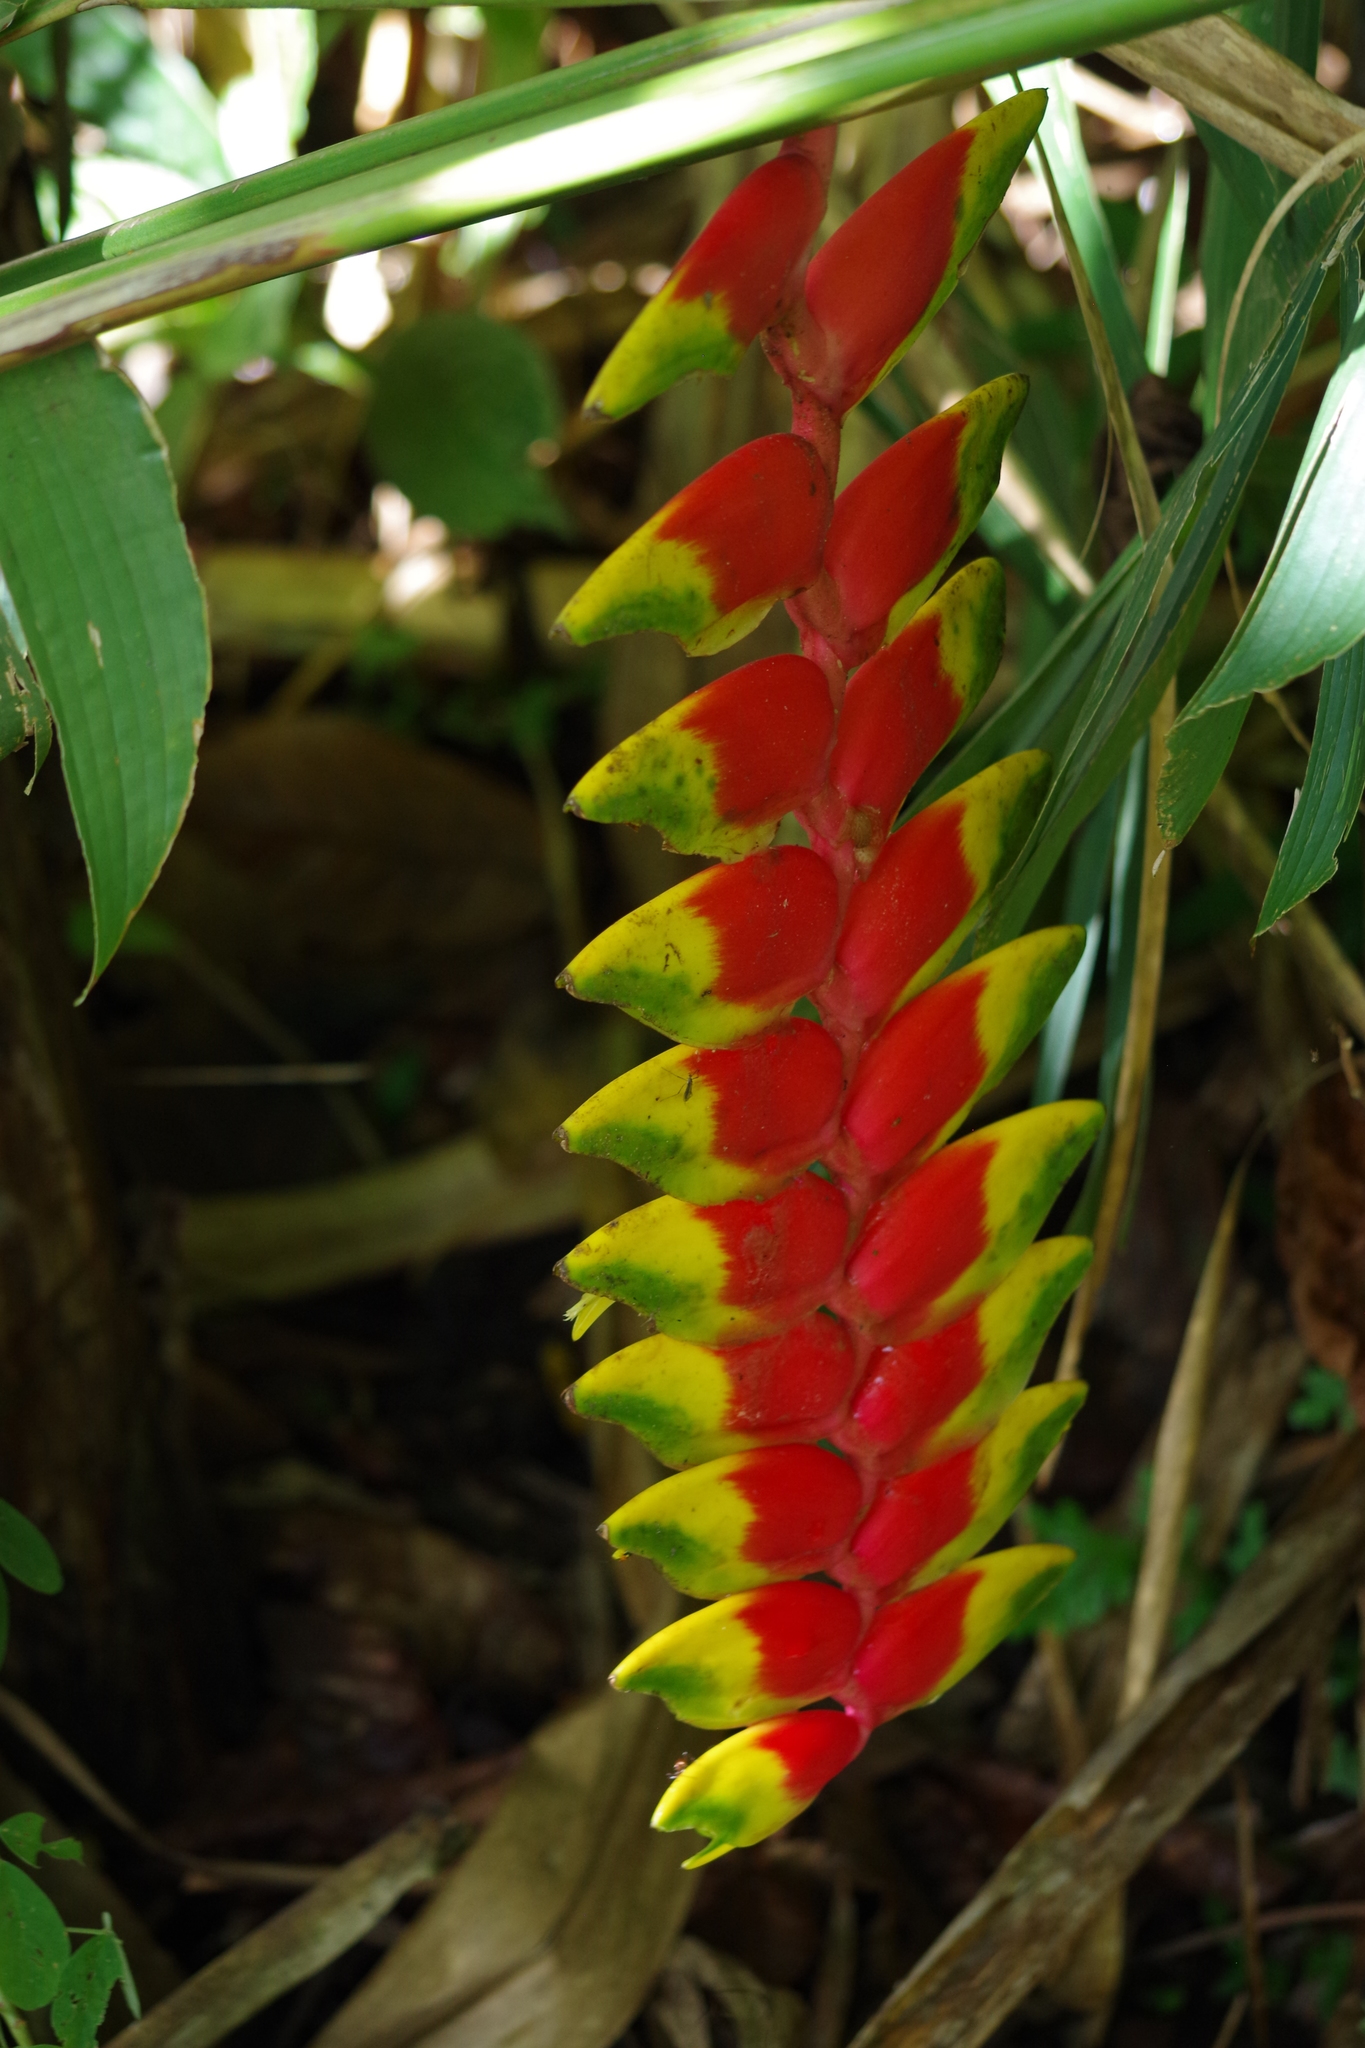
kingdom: Plantae
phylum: Tracheophyta
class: Liliopsida
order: Zingiberales
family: Heliconiaceae
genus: Heliconia
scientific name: Heliconia rostrata
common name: False bird of paradise
